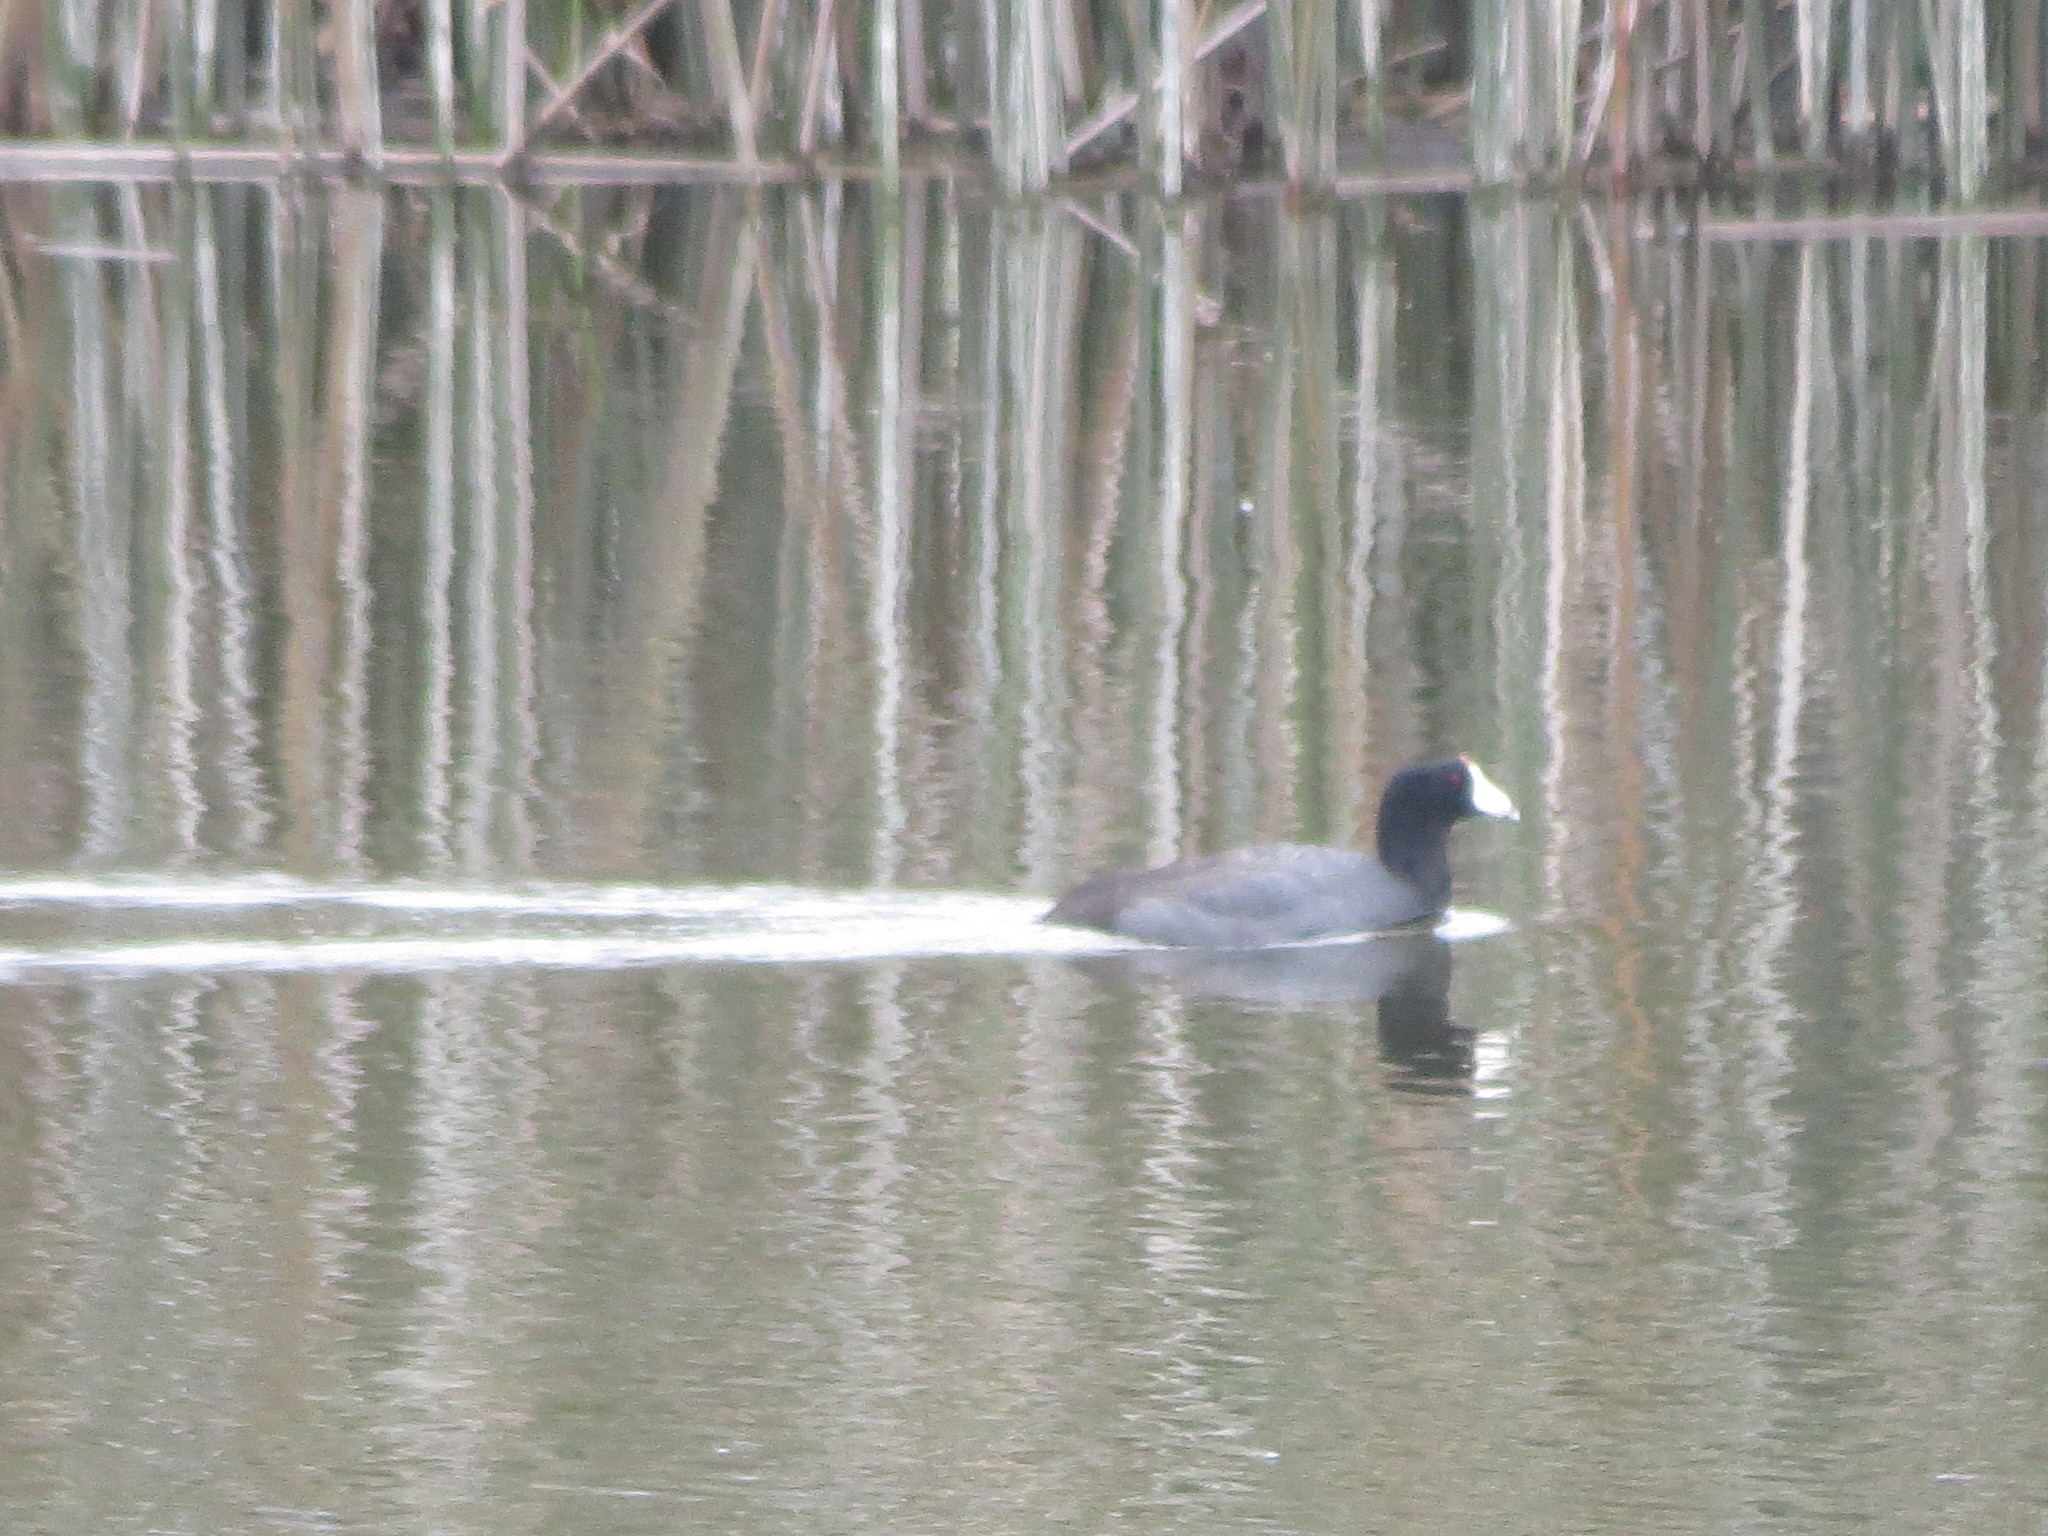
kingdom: Animalia
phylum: Chordata
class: Aves
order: Gruiformes
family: Rallidae
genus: Fulica
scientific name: Fulica americana
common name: American coot
